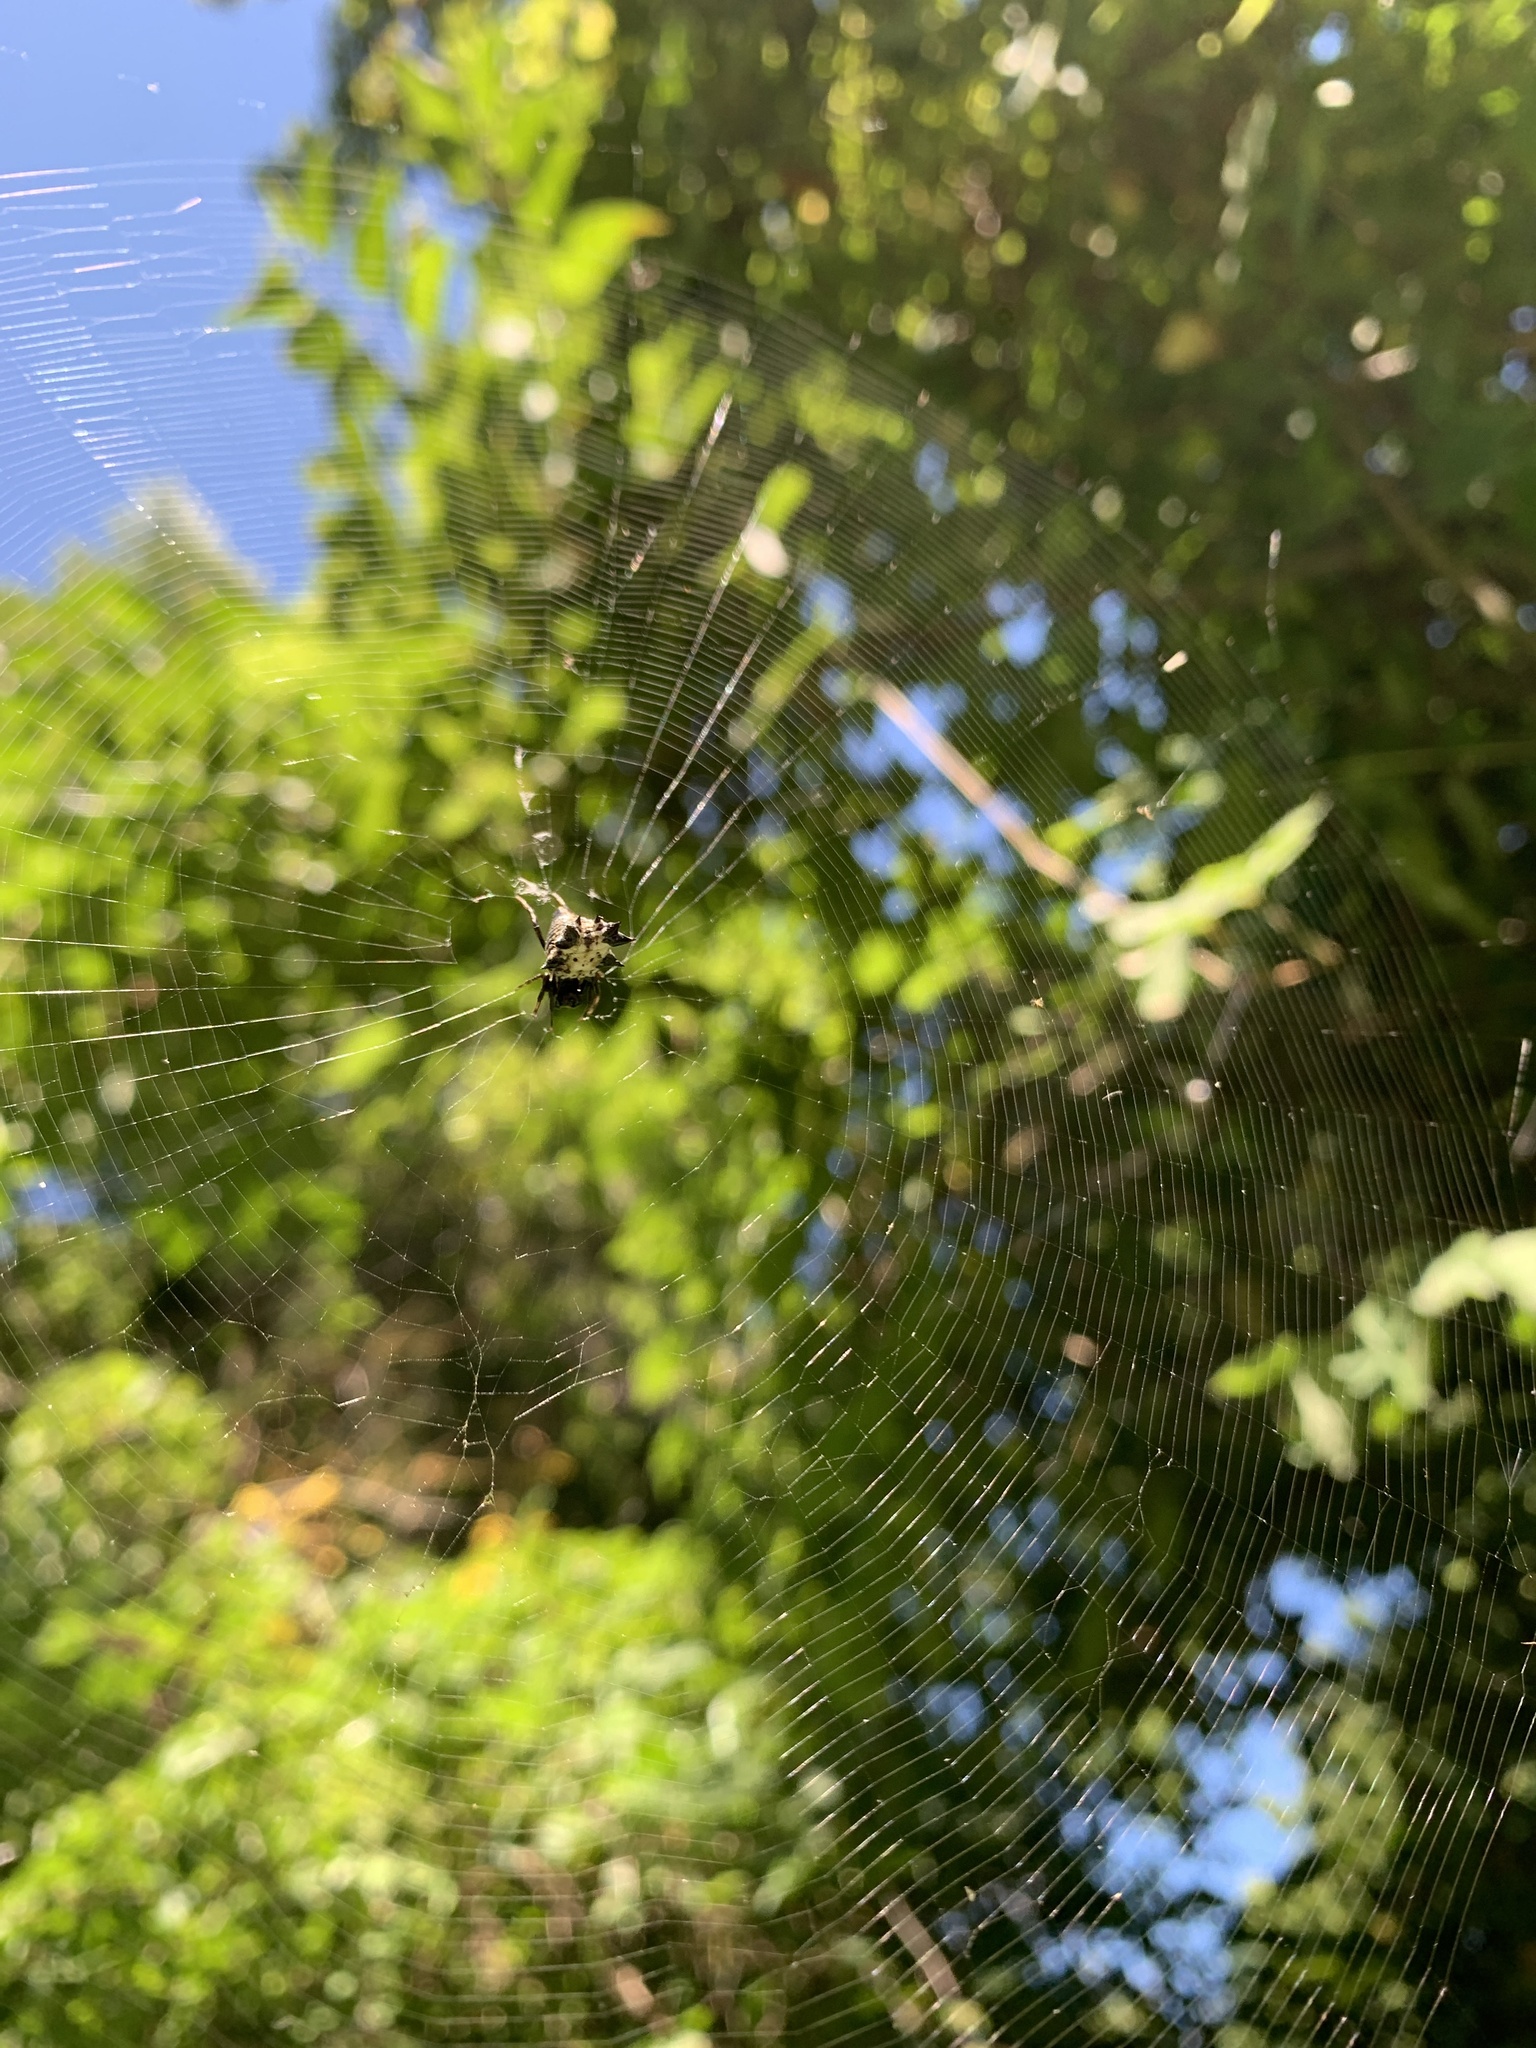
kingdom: Animalia
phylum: Arthropoda
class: Arachnida
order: Araneae
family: Araneidae
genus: Micrathena
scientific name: Micrathena gracilis
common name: Orb weavers
